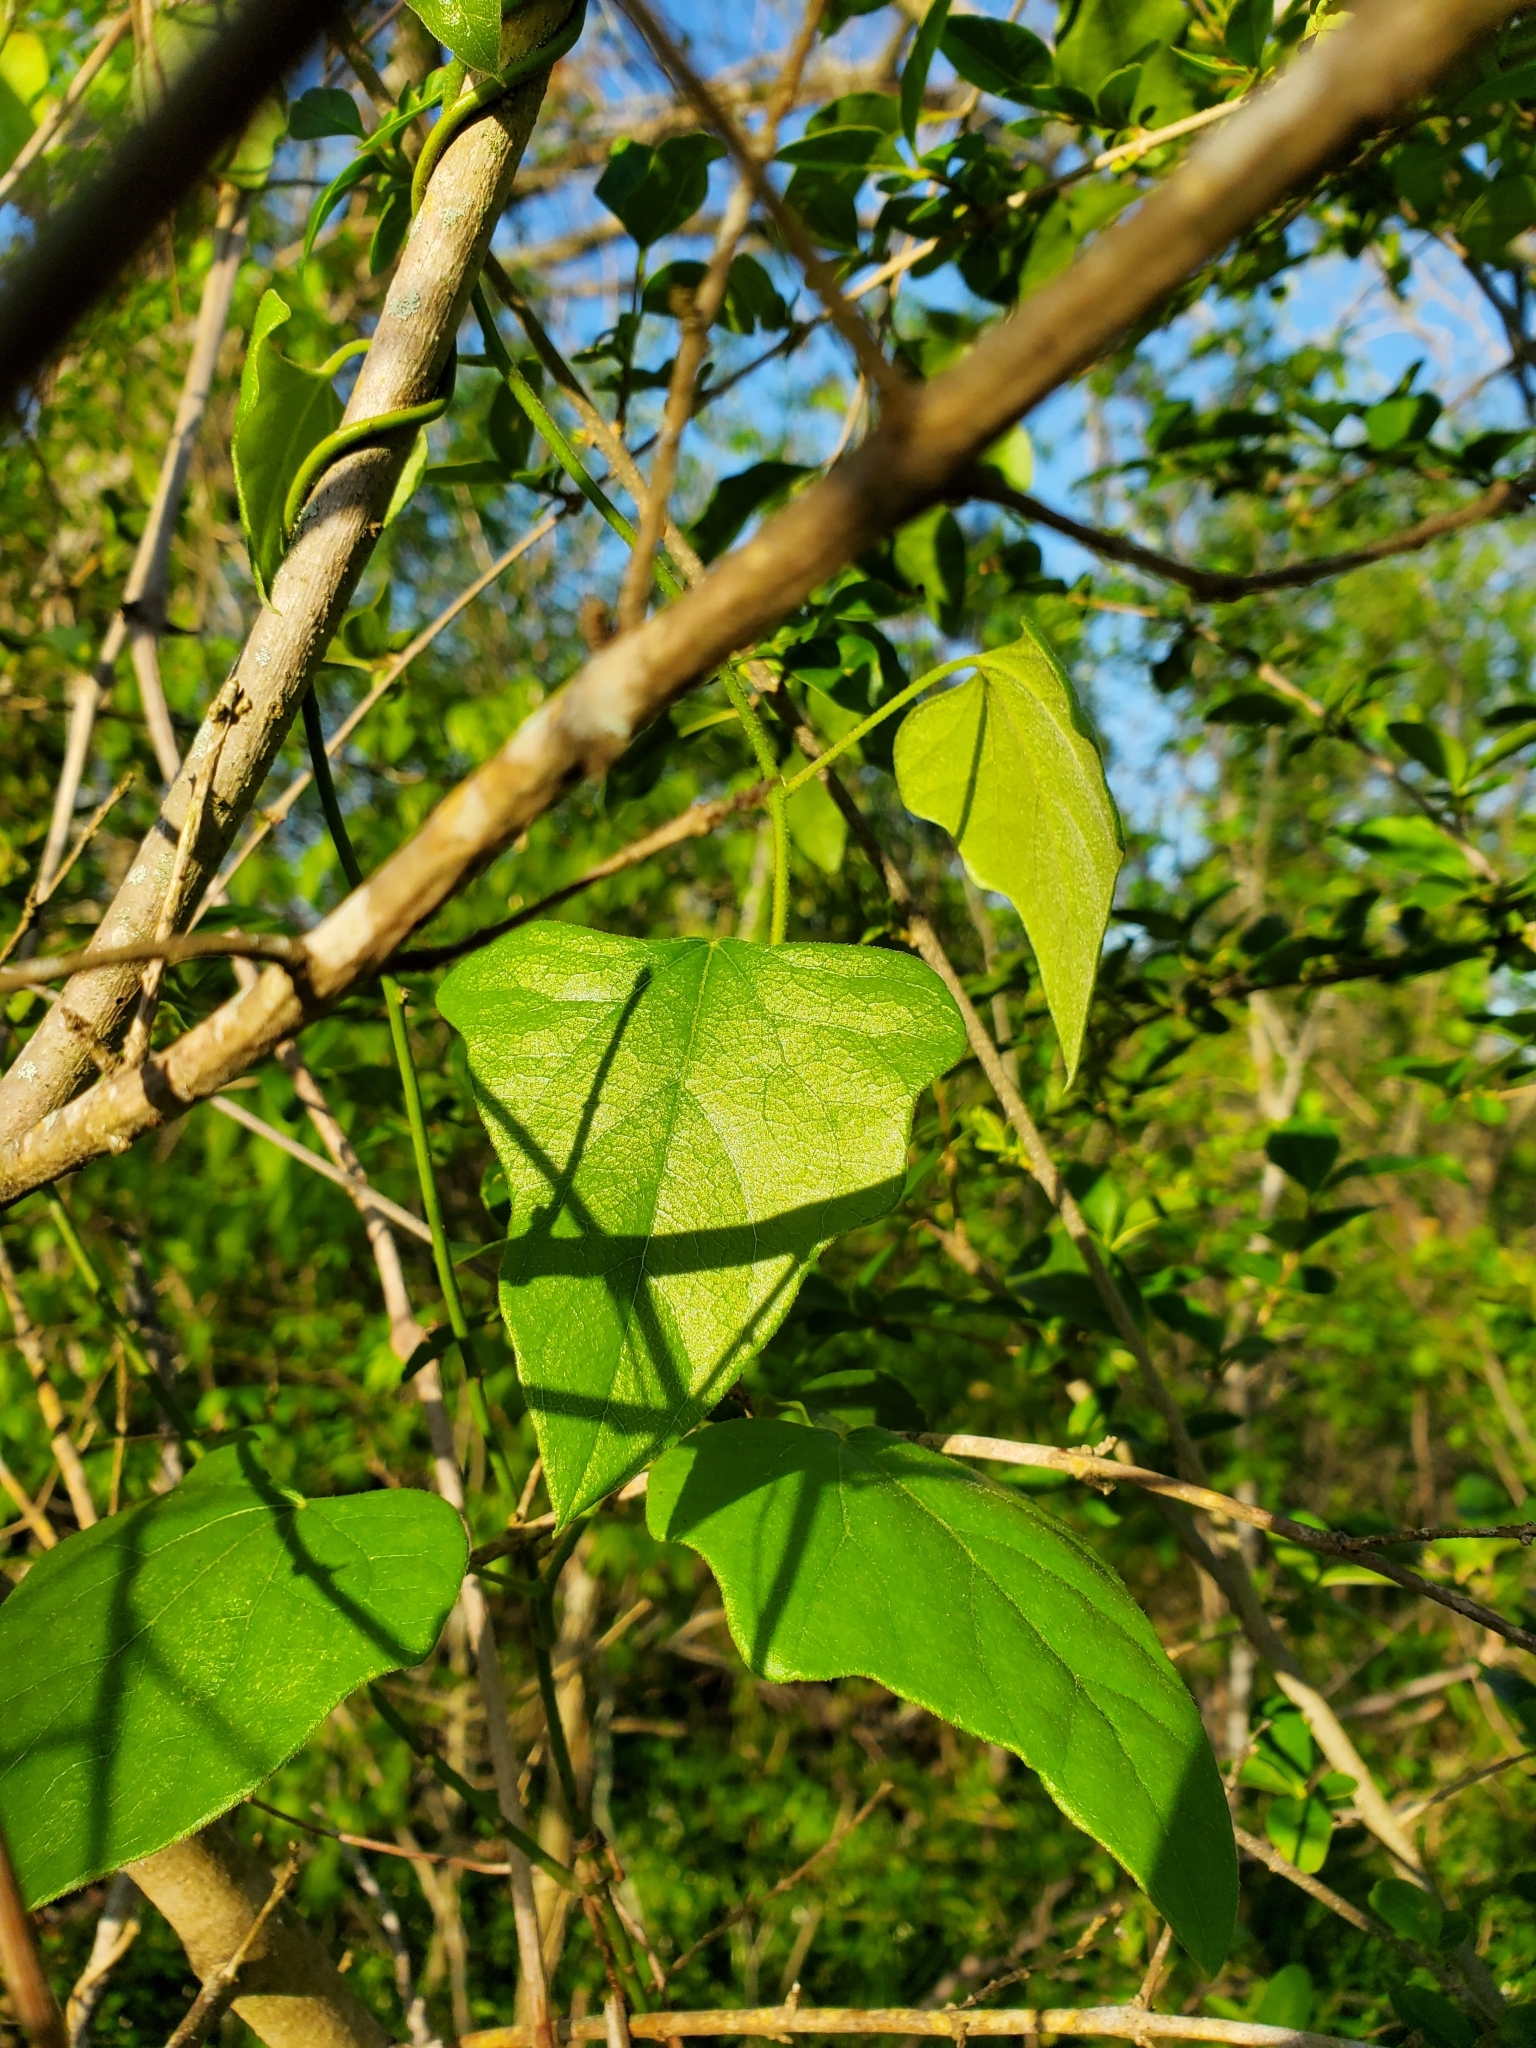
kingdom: Plantae
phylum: Tracheophyta
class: Magnoliopsida
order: Ranunculales
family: Menispermaceae
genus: Cocculus
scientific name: Cocculus carolinus
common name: Carolina moonseed
